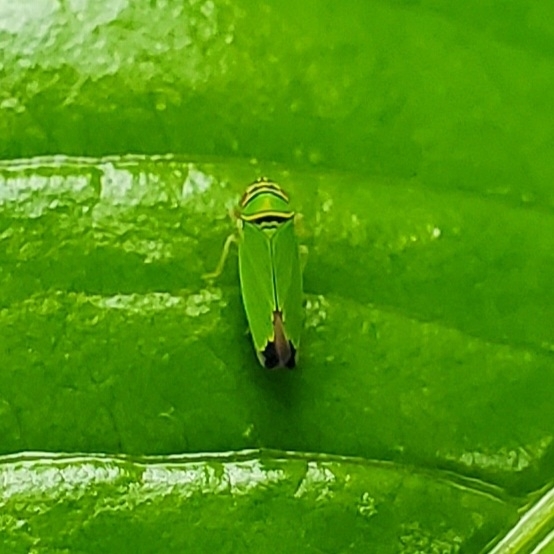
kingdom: Animalia
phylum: Arthropoda
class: Insecta
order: Hemiptera
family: Cicadellidae
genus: Tylozygus
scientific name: Tylozygus geometricus
